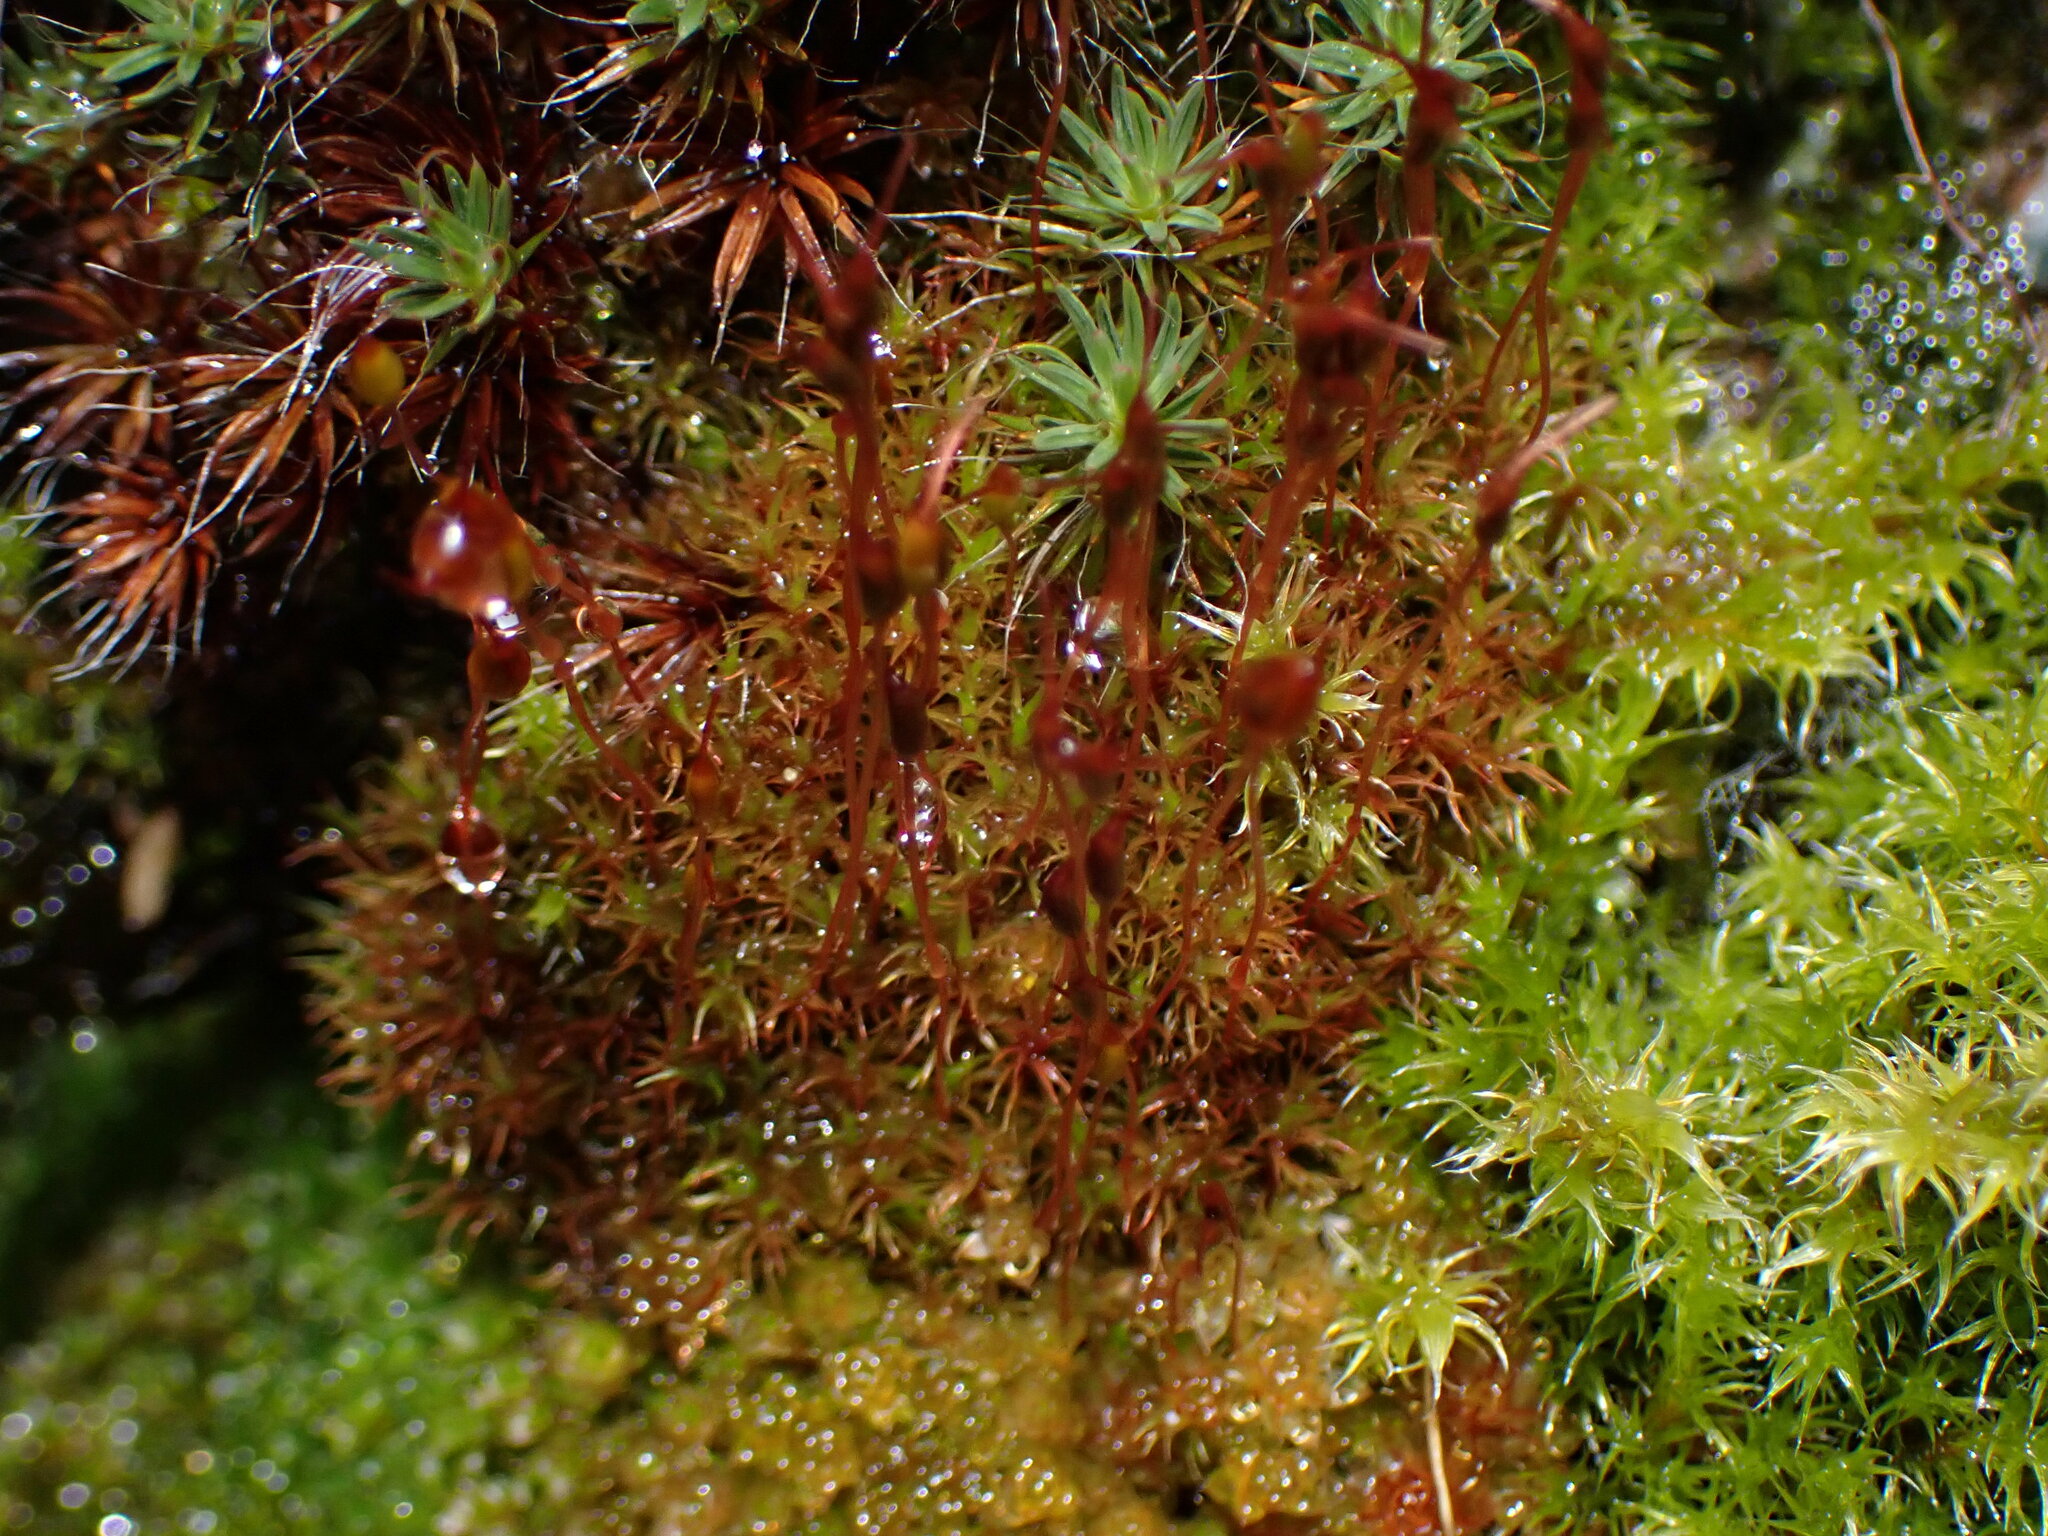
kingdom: Plantae
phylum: Bryophyta
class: Bryopsida
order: Dicranales
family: Ditrichaceae
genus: Ceratodon
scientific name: Ceratodon purpureus
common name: Redshank
